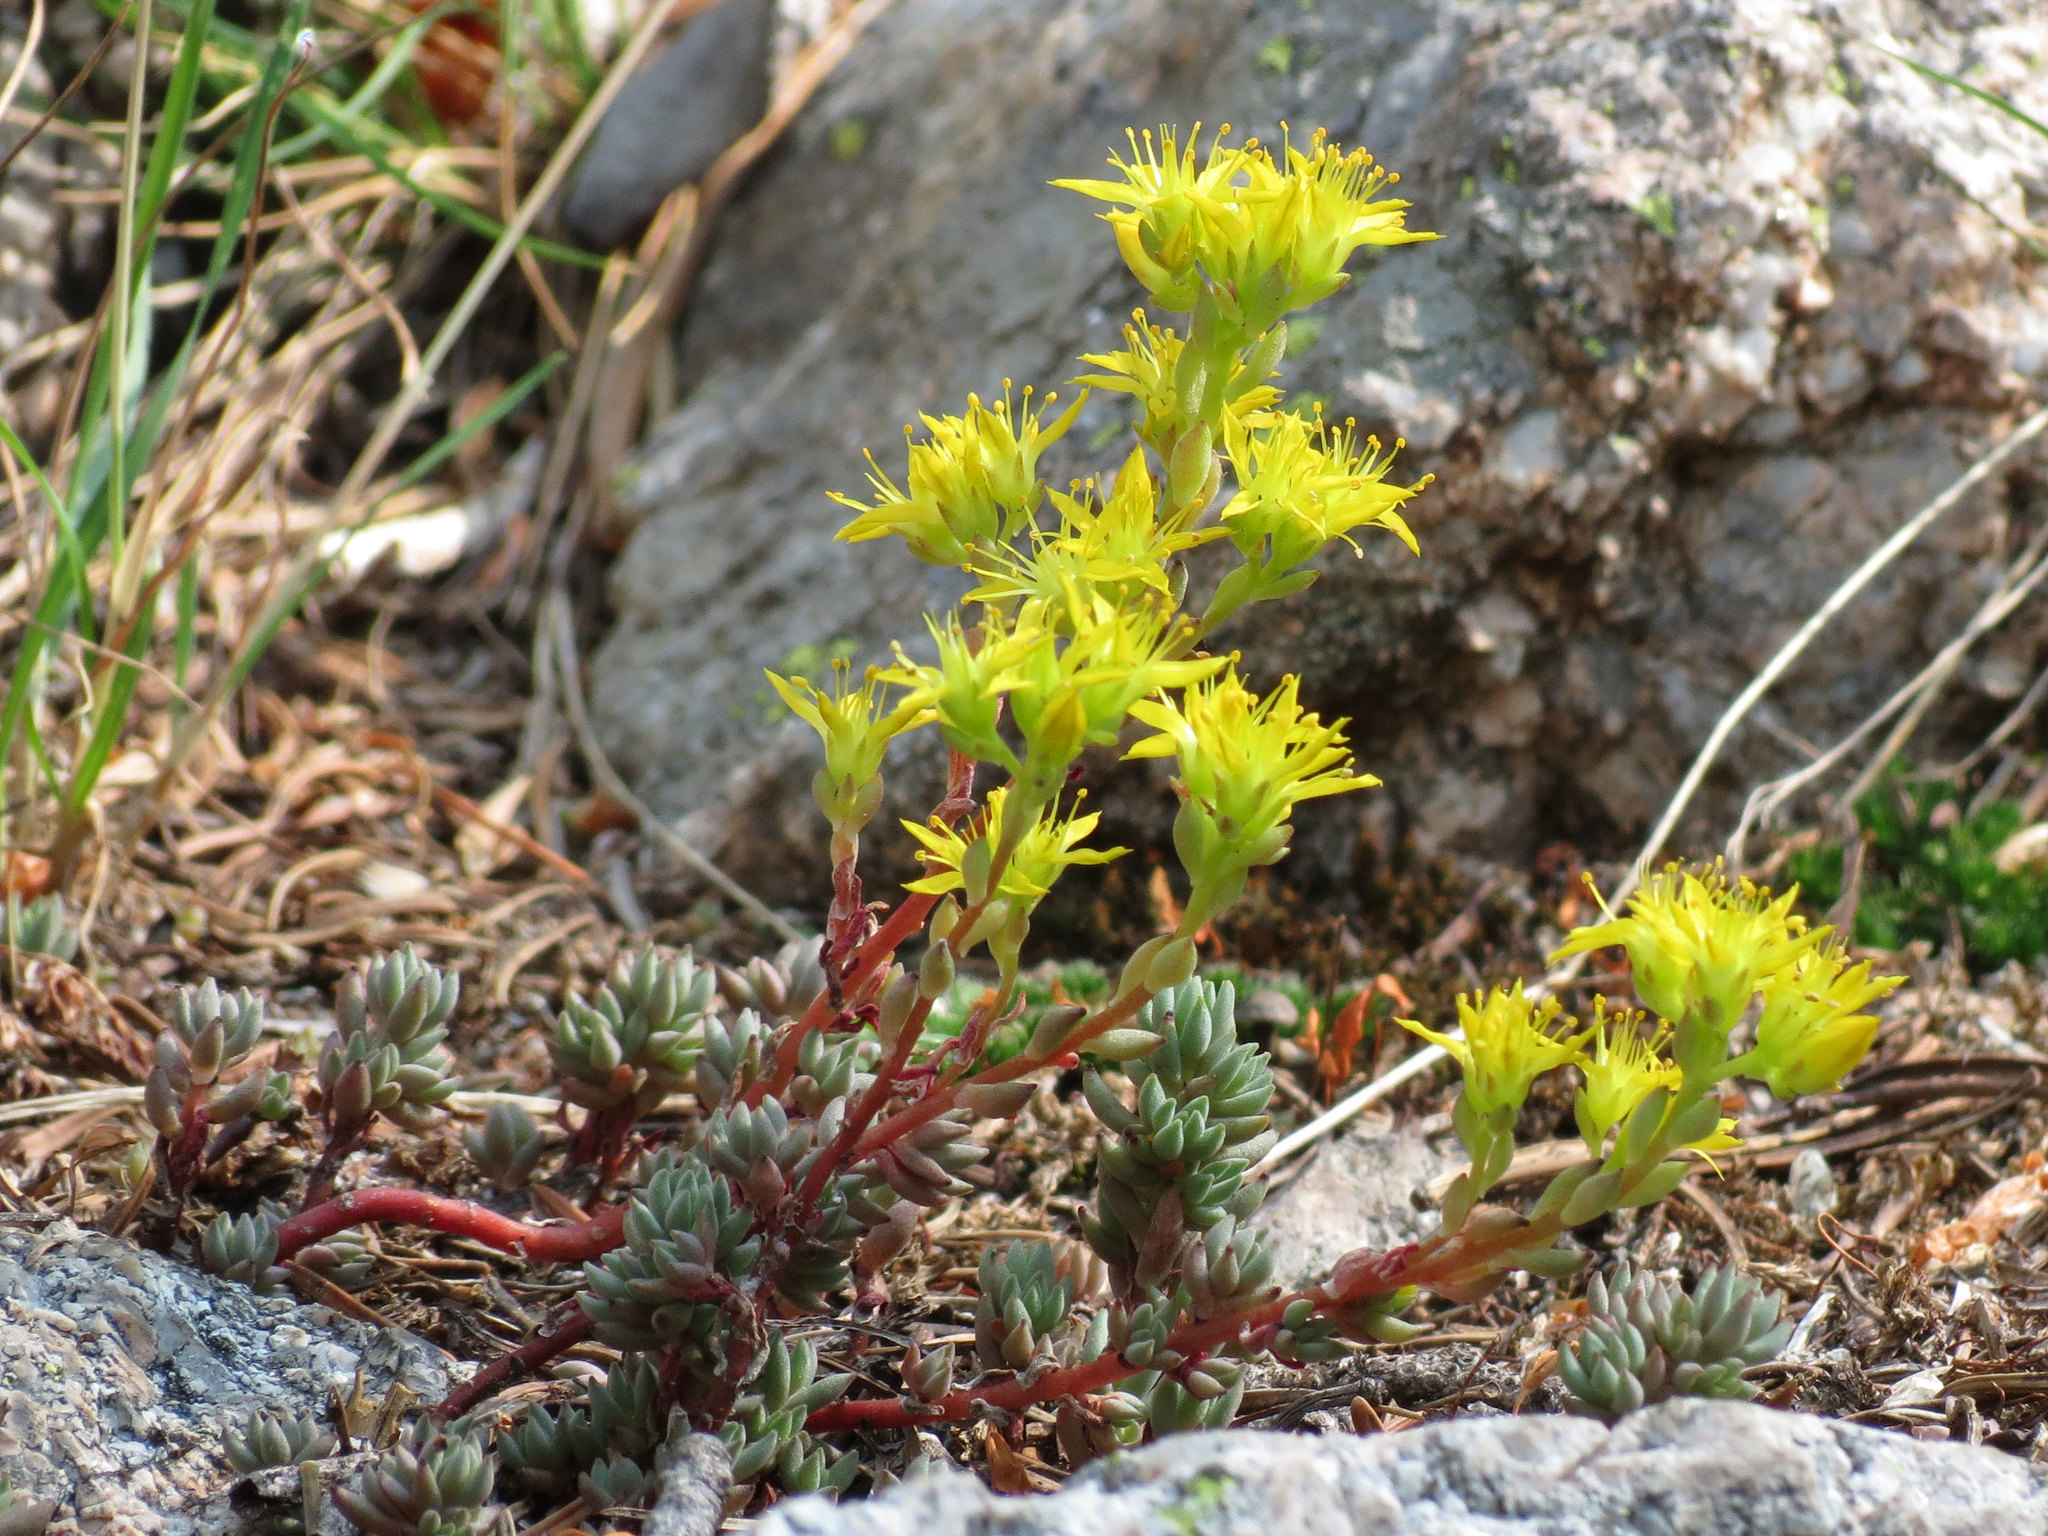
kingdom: Plantae
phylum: Tracheophyta
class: Magnoliopsida
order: Saxifragales
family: Crassulaceae
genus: Sedum
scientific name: Sedum lanceolatum
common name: Common stonecrop
